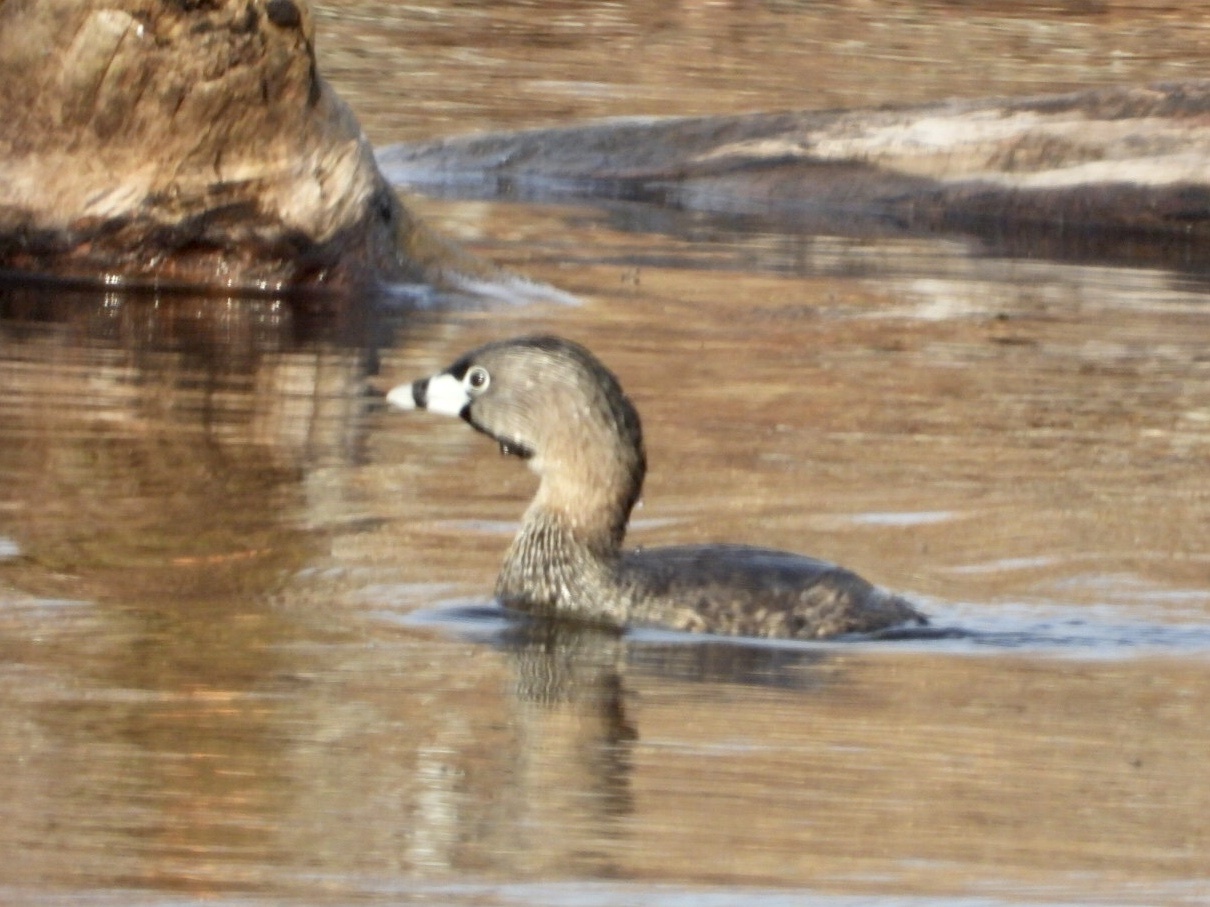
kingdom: Animalia
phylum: Chordata
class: Aves
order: Podicipediformes
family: Podicipedidae
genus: Podilymbus
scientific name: Podilymbus podiceps
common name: Pied-billed grebe
